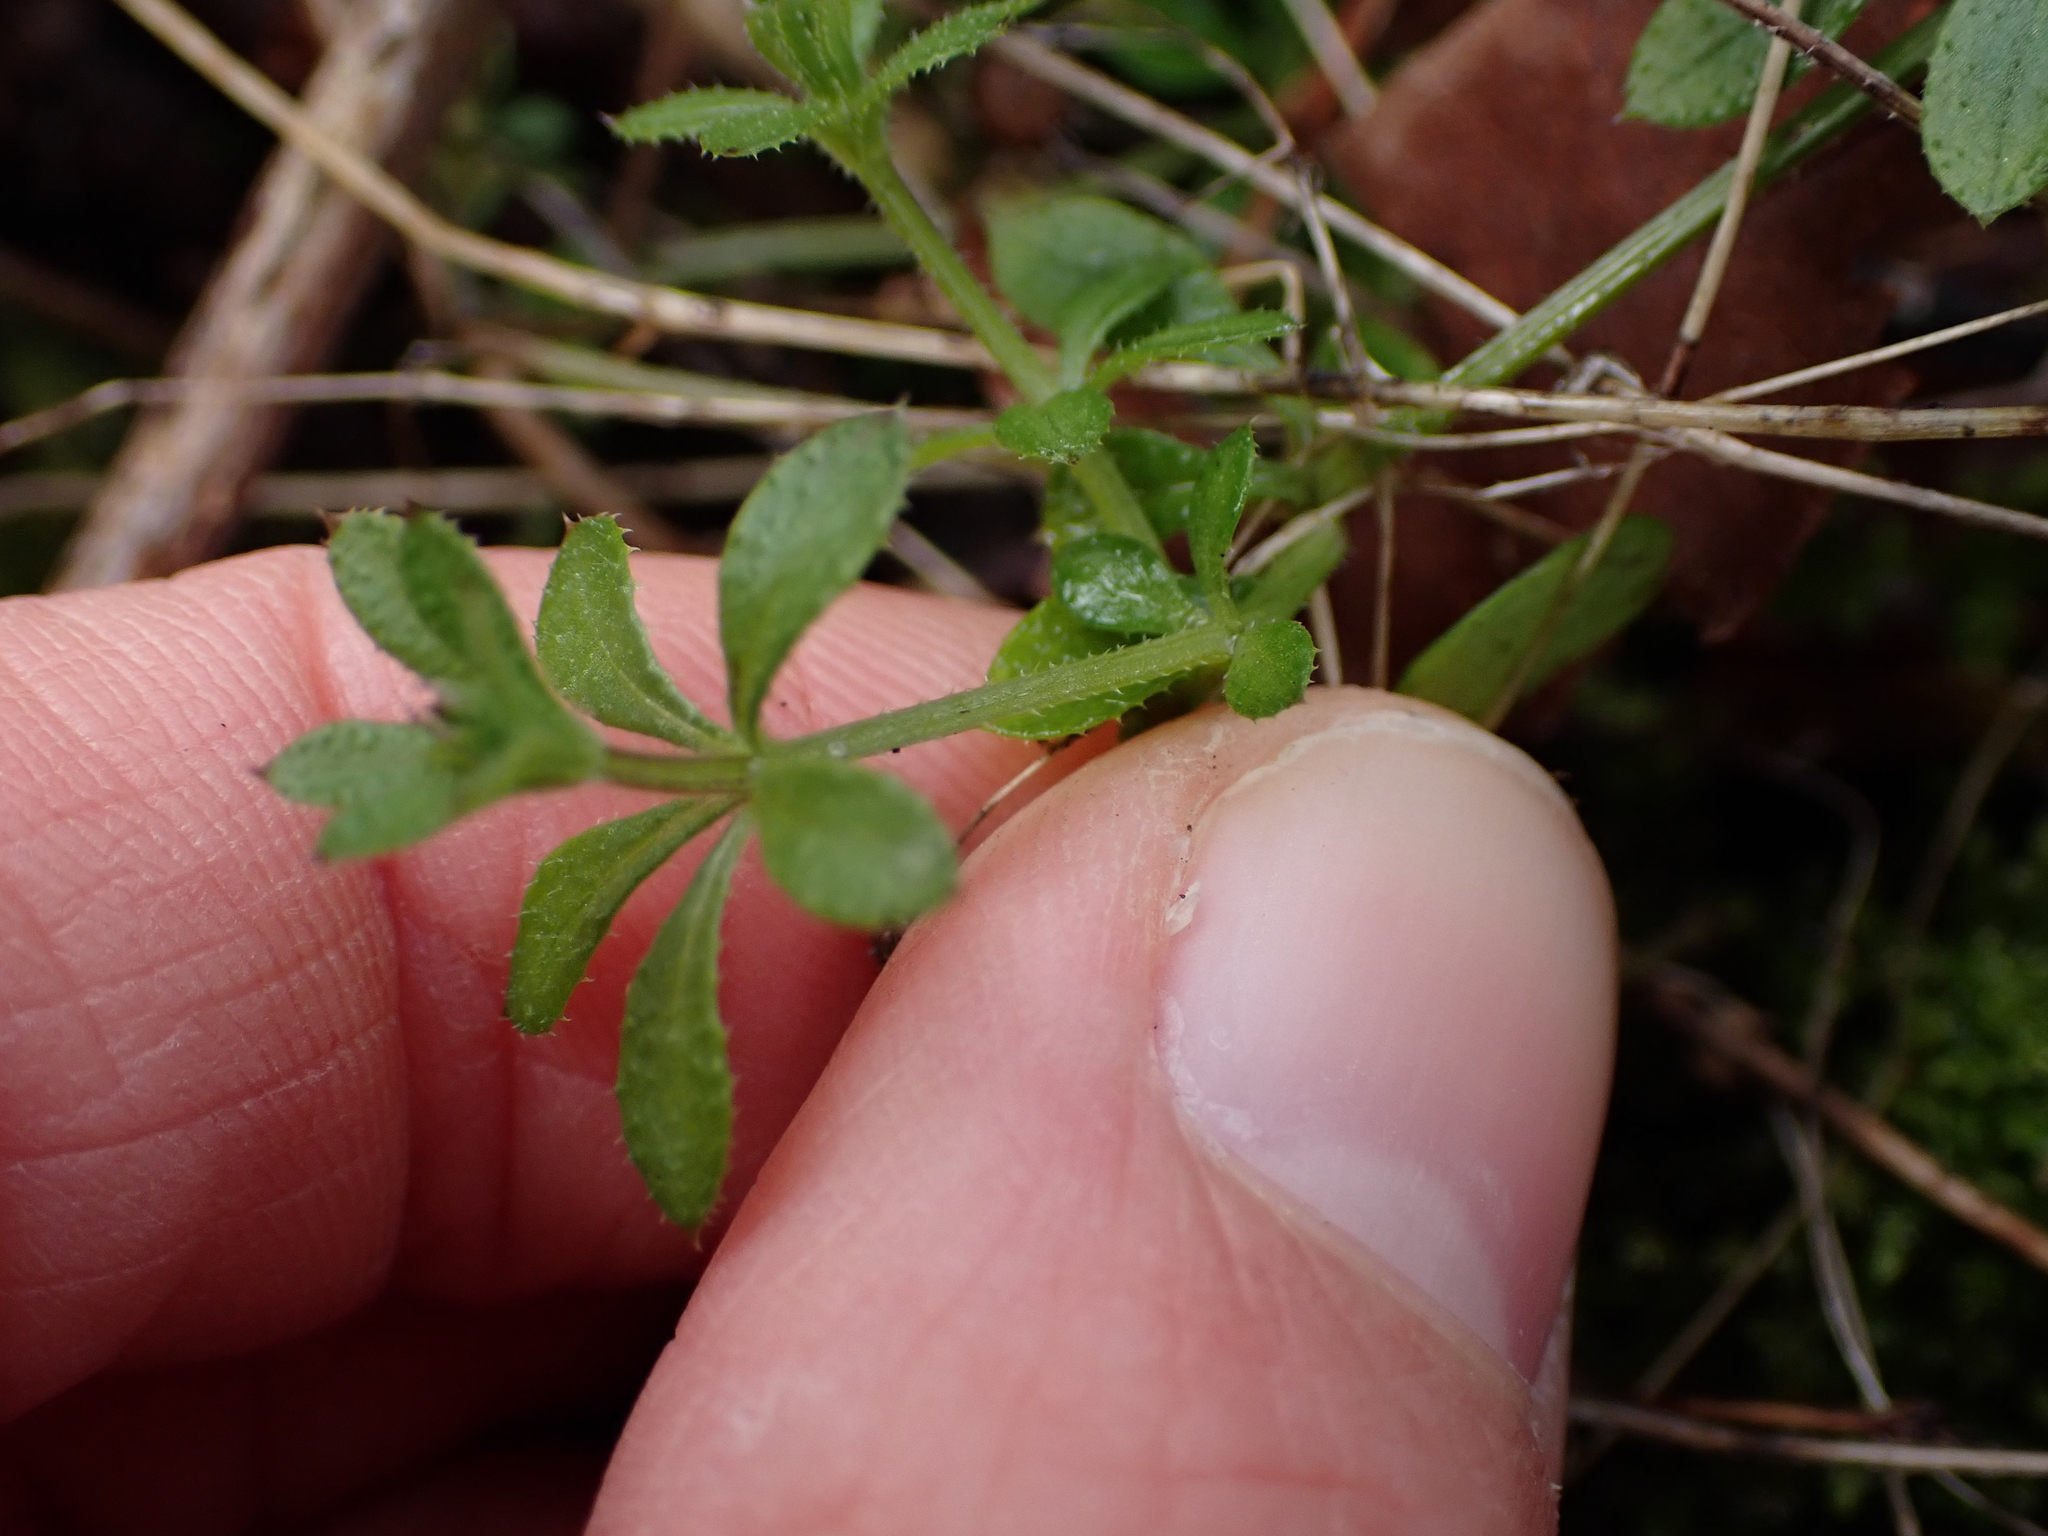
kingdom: Plantae
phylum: Tracheophyta
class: Magnoliopsida
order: Gentianales
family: Rubiaceae
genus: Galium
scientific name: Galium aparine
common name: Cleavers
